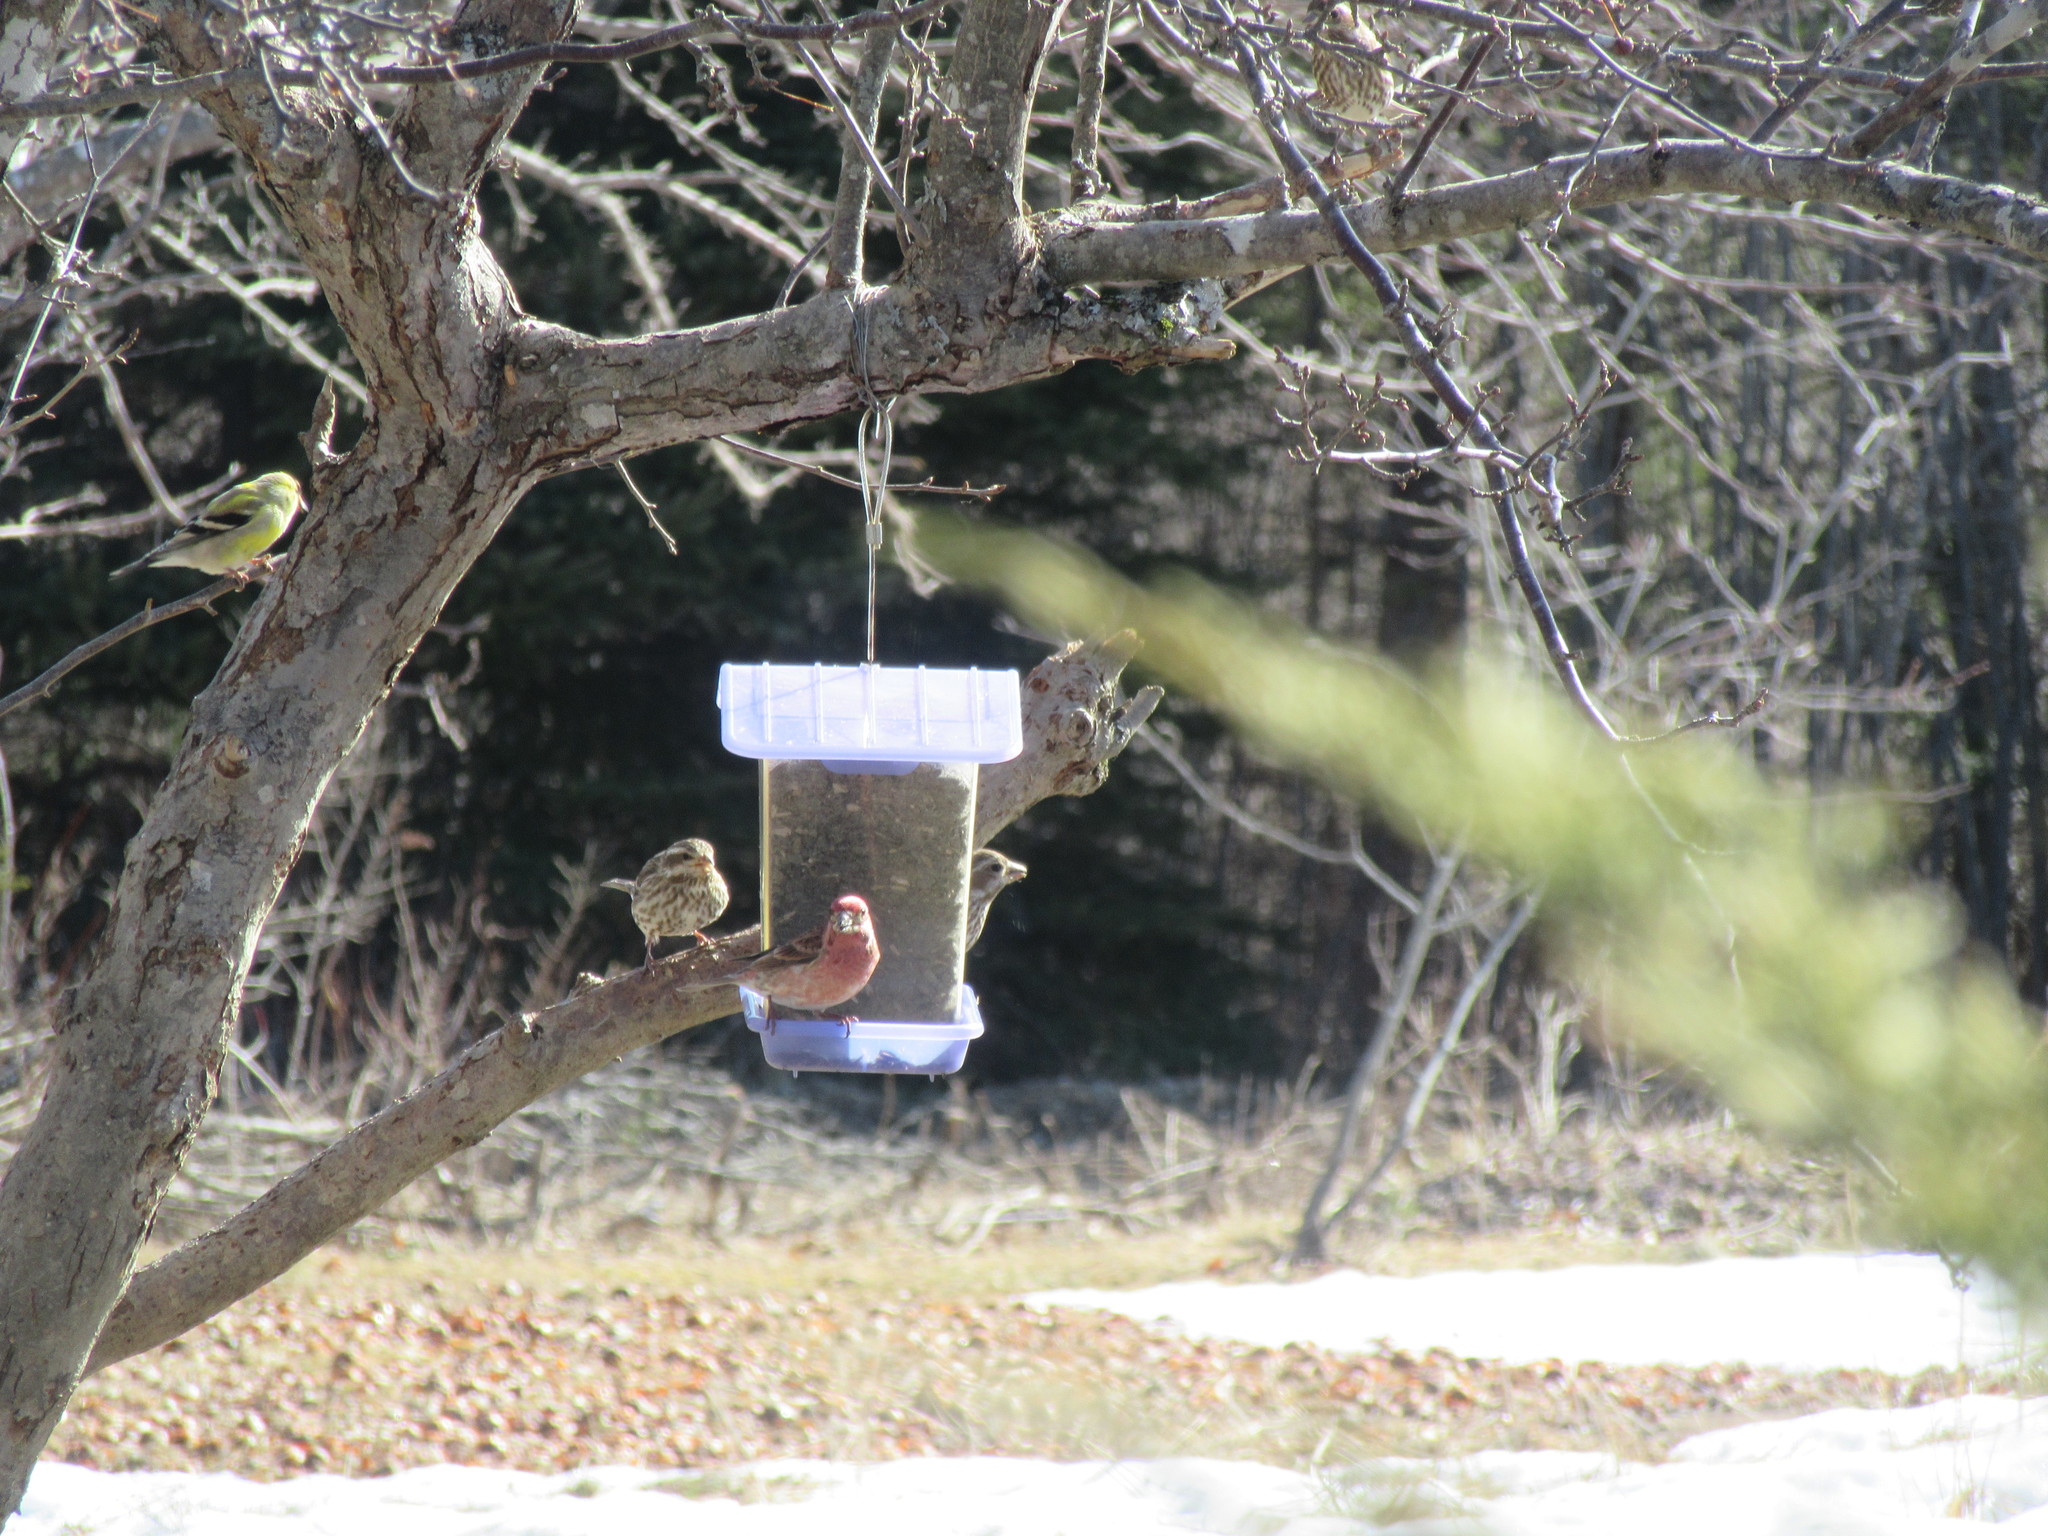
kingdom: Animalia
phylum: Chordata
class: Aves
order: Passeriformes
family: Fringillidae
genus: Haemorhous
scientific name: Haemorhous purpureus
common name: Purple finch
